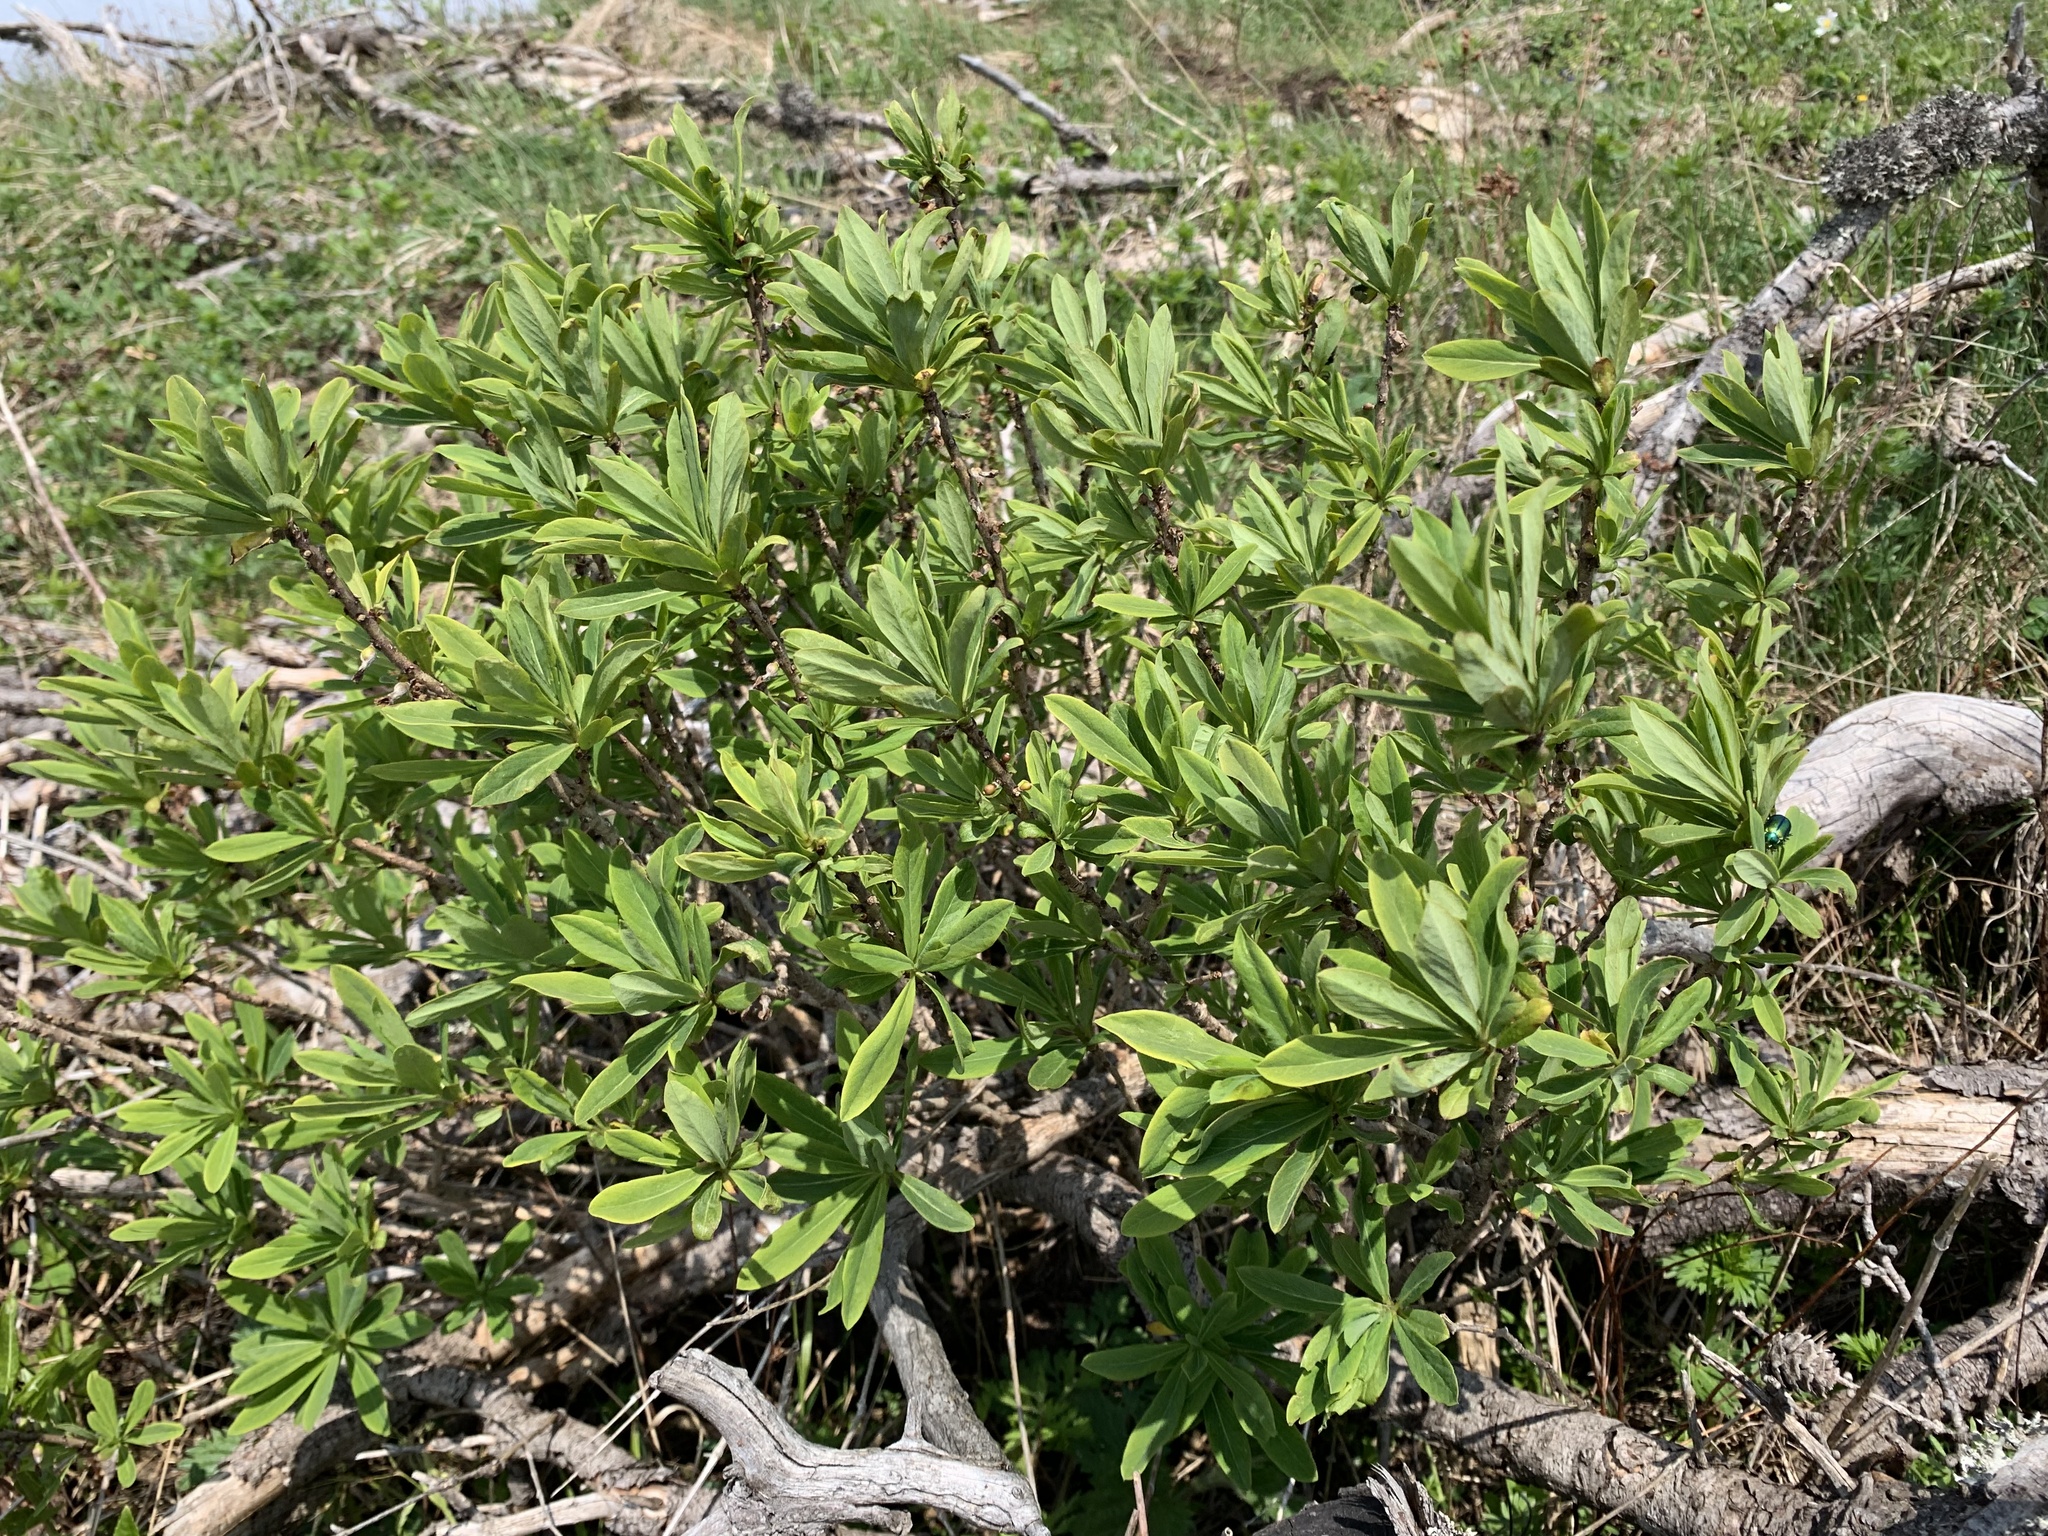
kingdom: Plantae
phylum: Tracheophyta
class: Magnoliopsida
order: Malvales
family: Thymelaeaceae
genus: Daphne
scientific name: Daphne mezereum
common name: Mezereon
